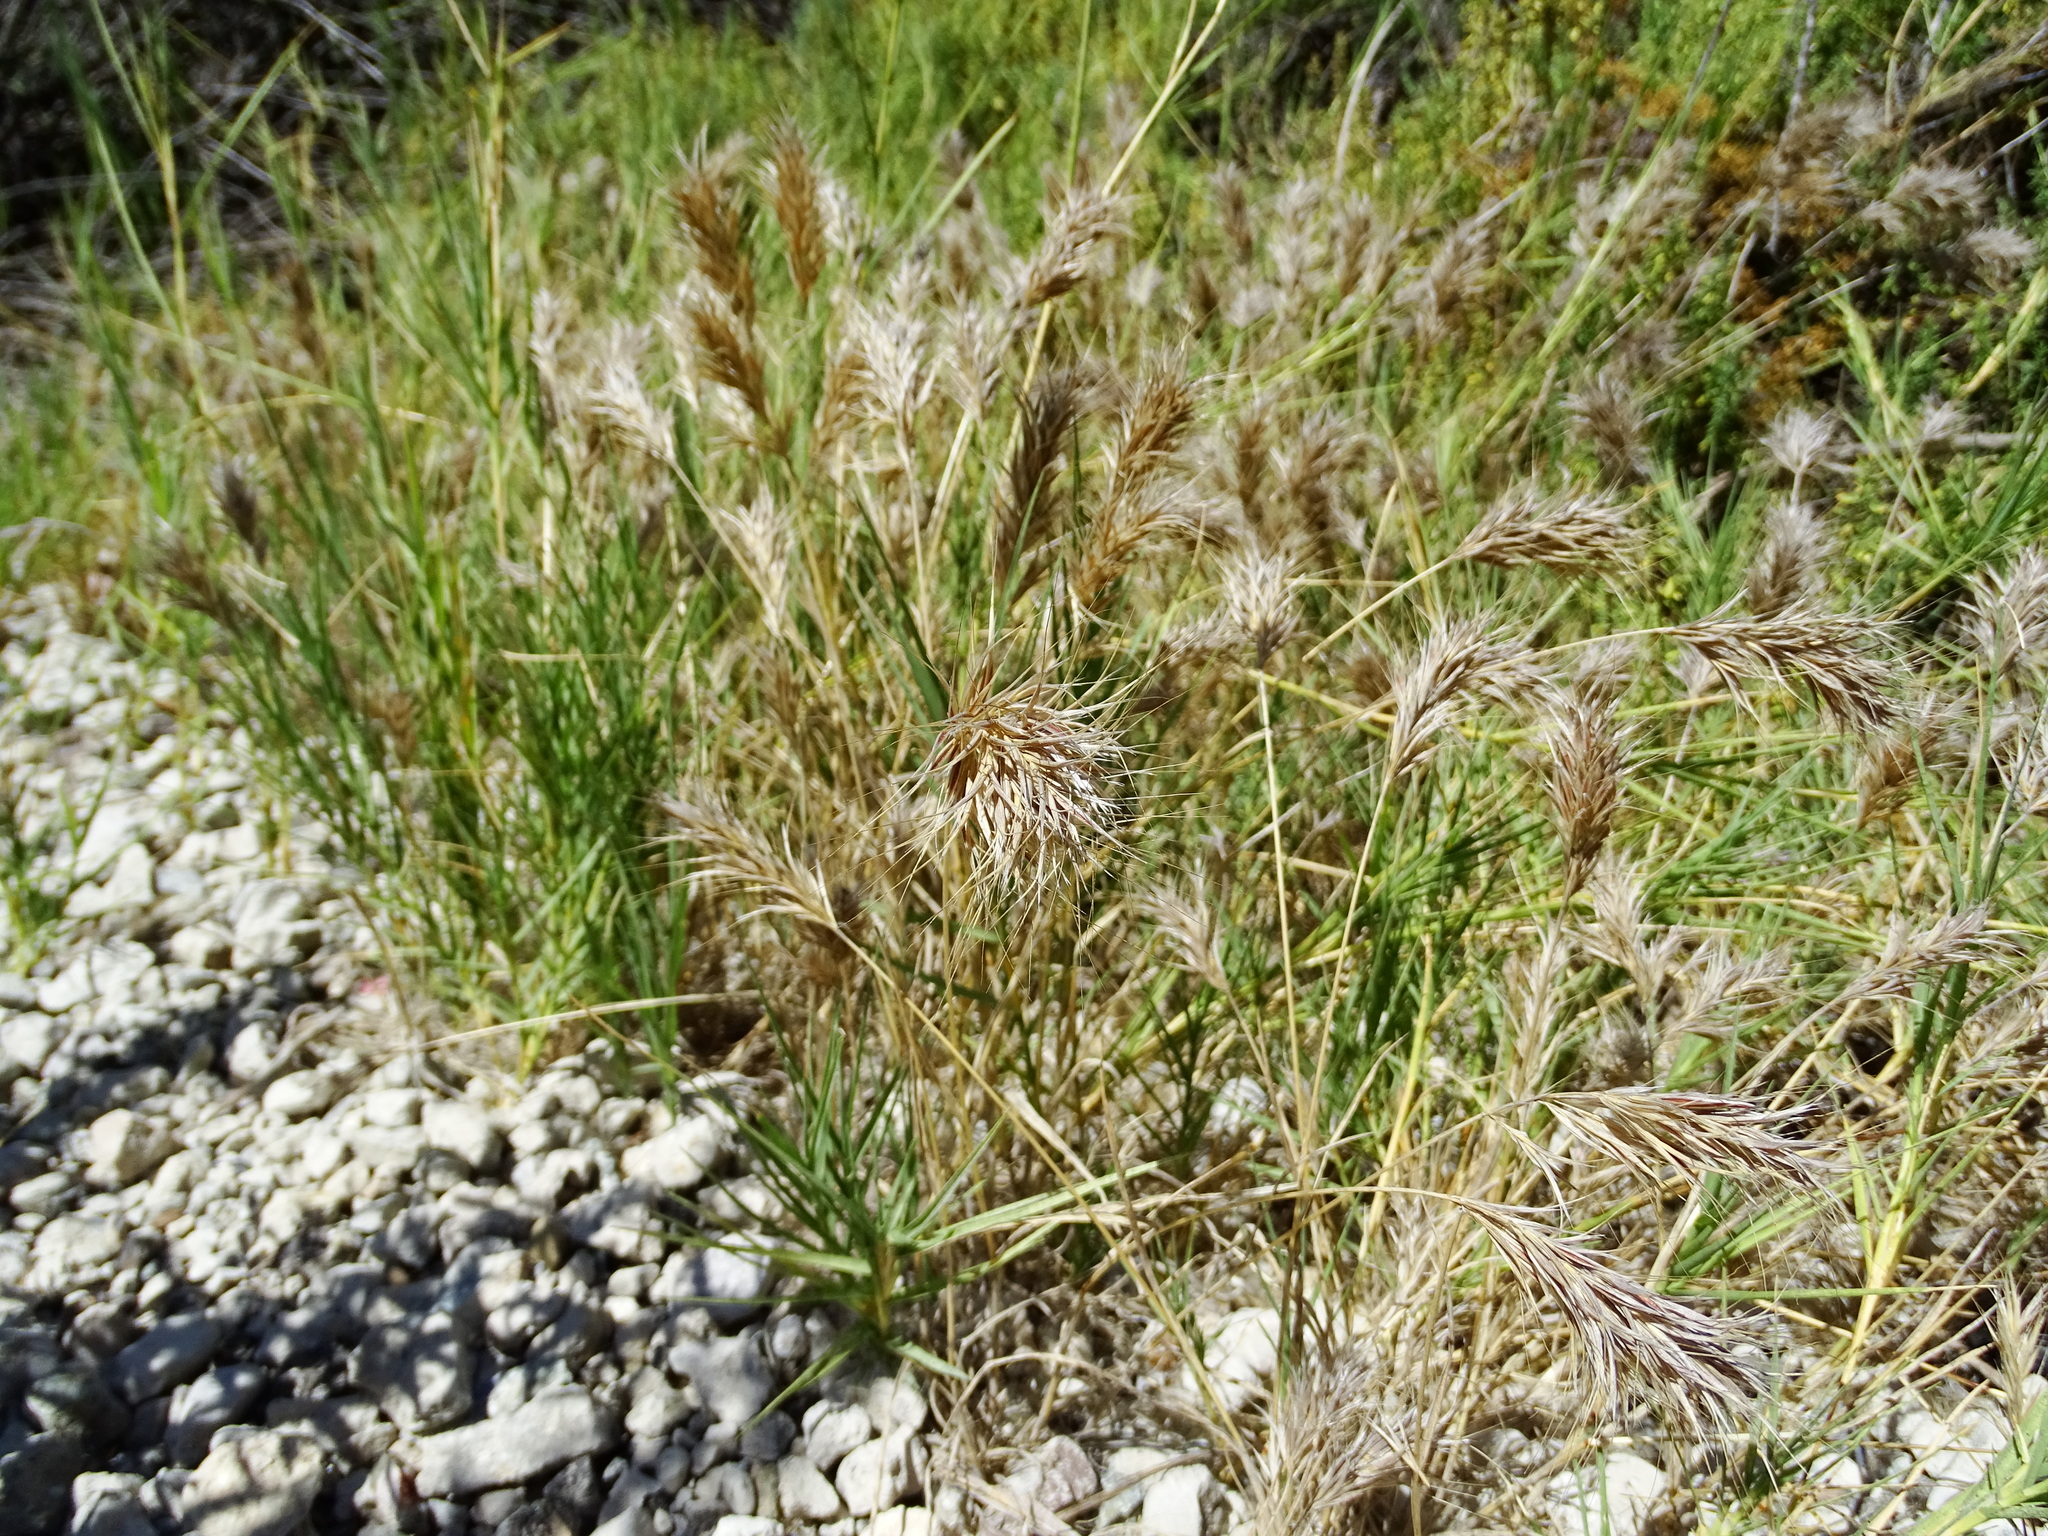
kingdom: Plantae
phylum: Tracheophyta
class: Liliopsida
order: Poales
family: Poaceae
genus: Bromus
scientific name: Bromus madritensis
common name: Compact brome
